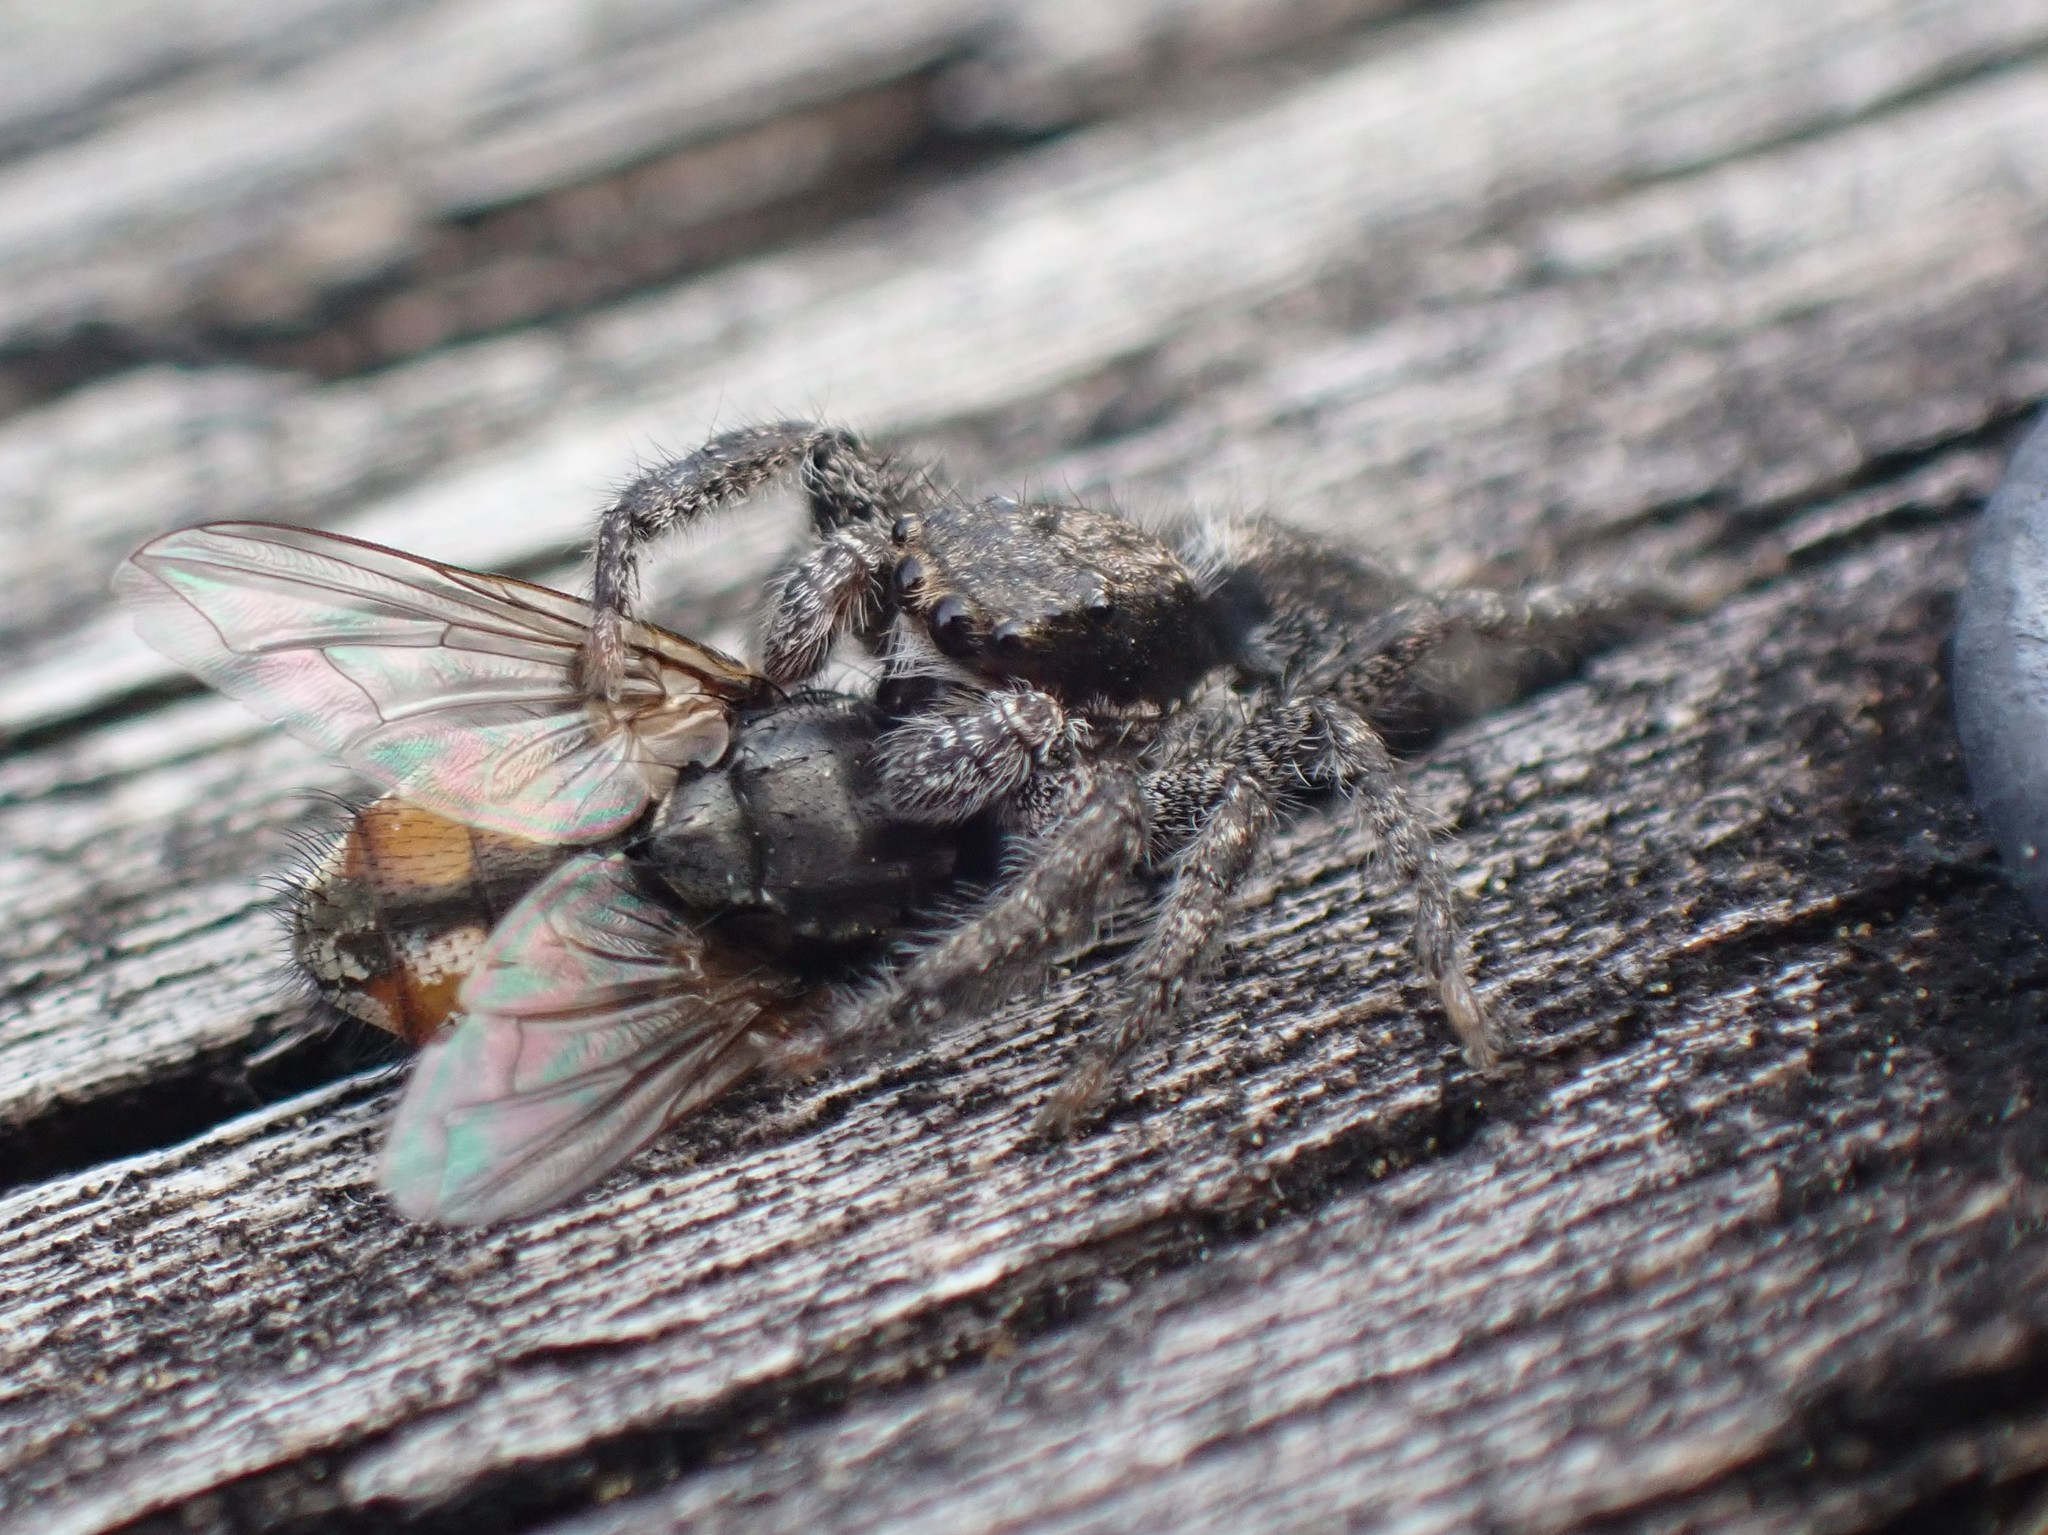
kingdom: Animalia
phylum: Arthropoda
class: Arachnida
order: Araneae
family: Salticidae
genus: Platycryptus
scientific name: Platycryptus californicus
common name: Jumping spiders
